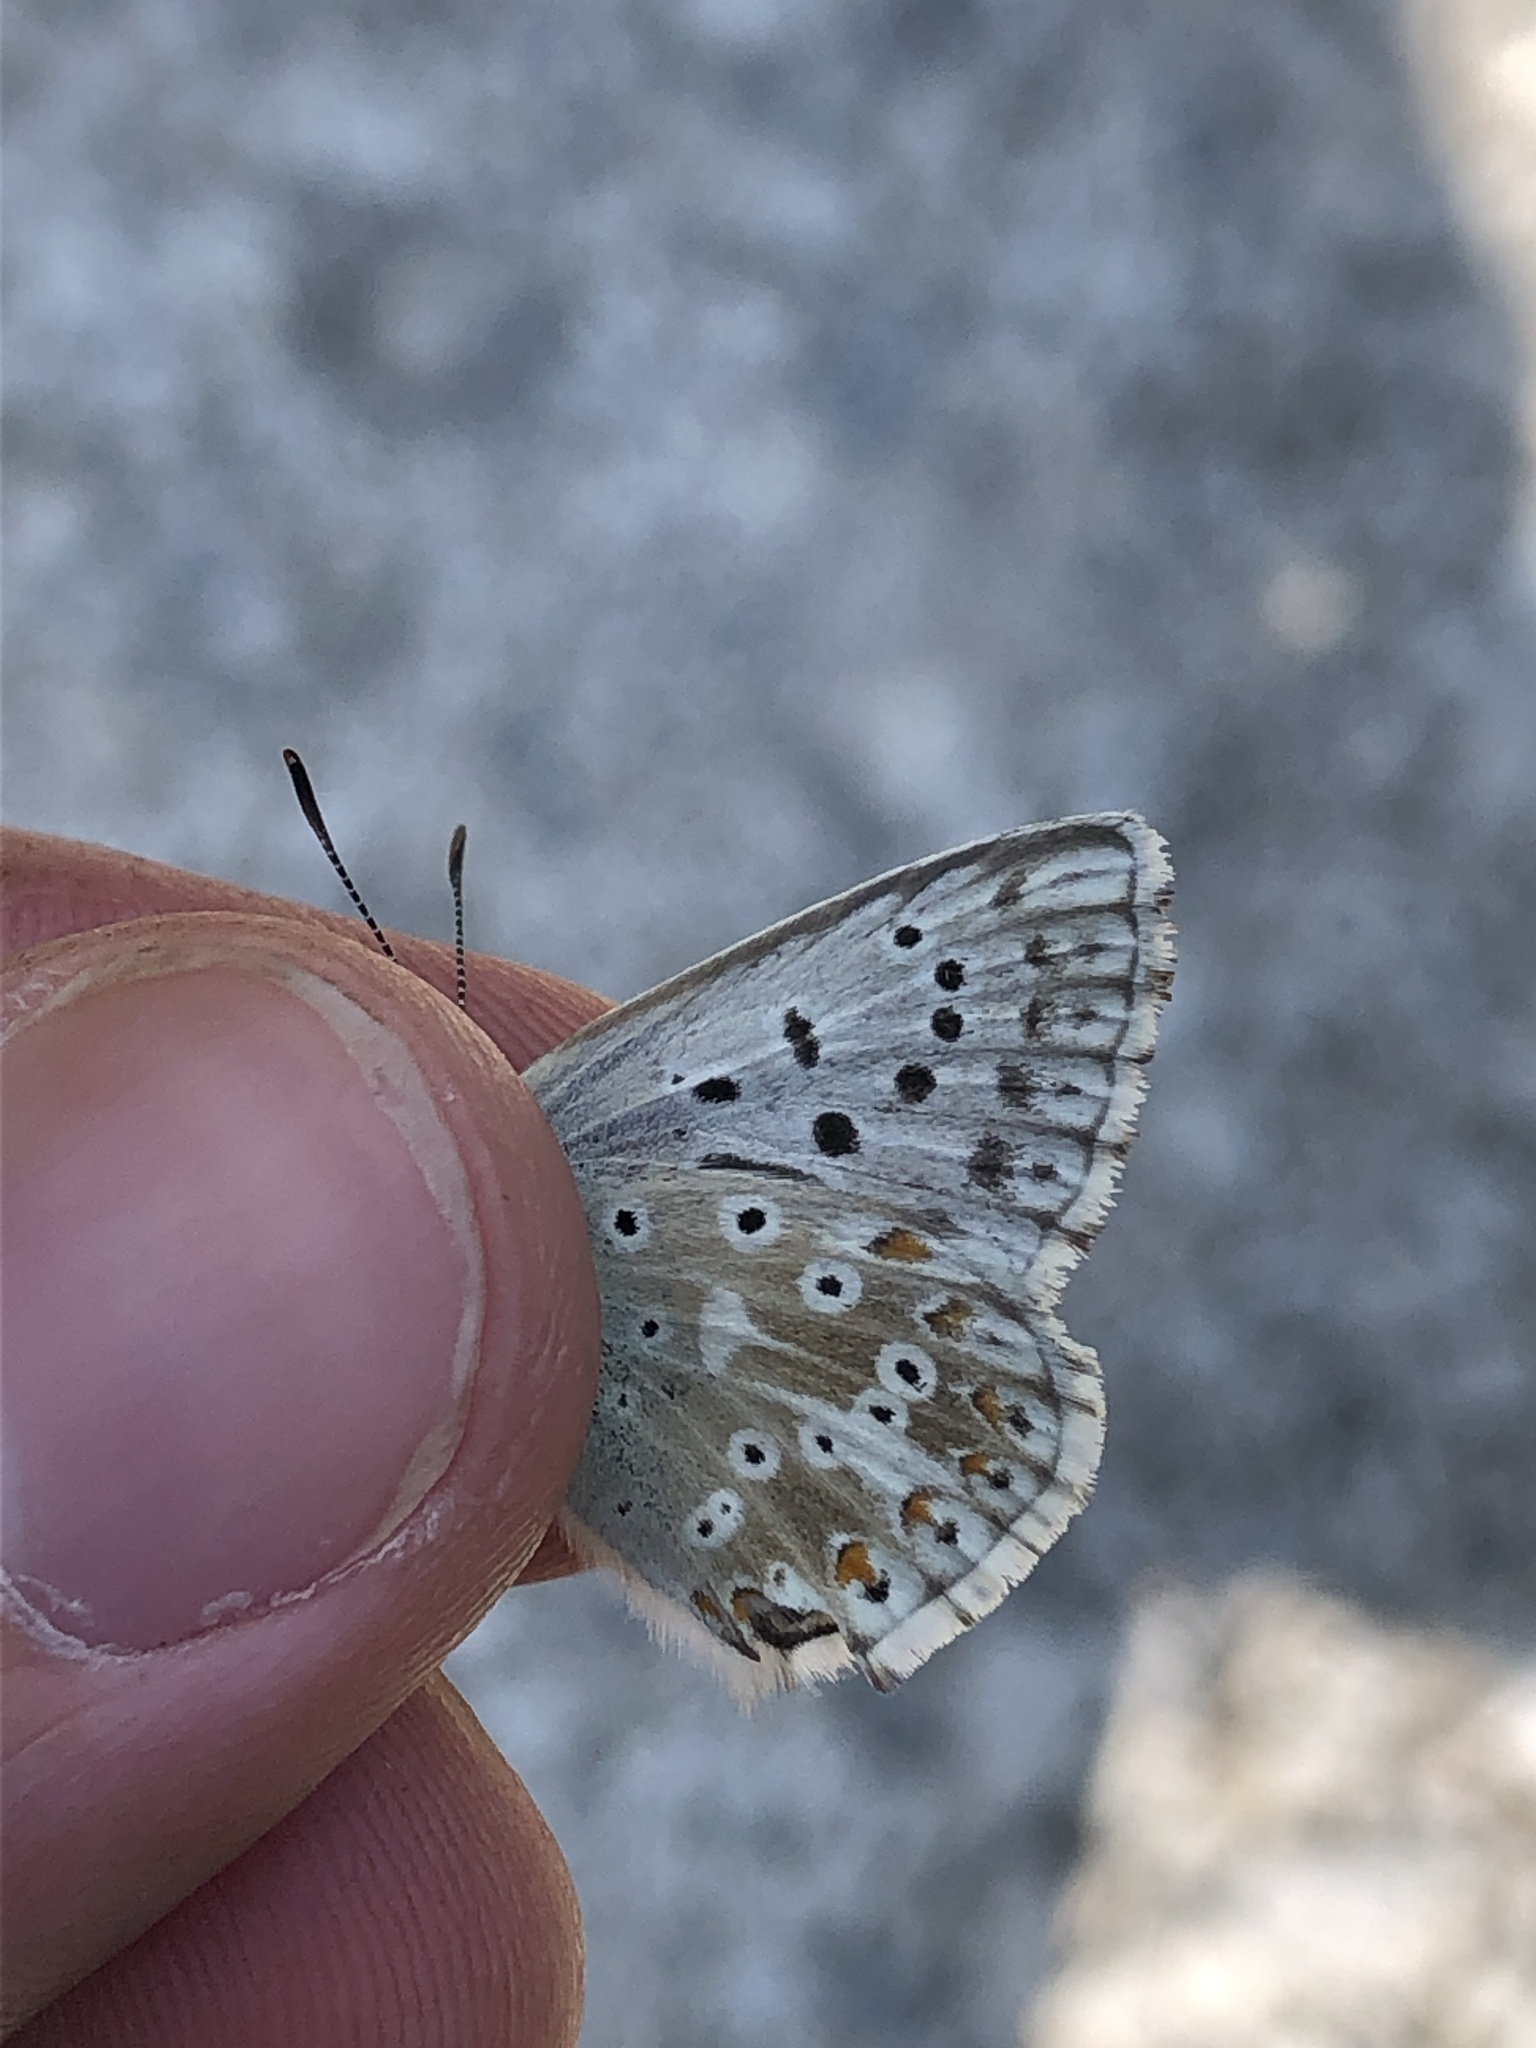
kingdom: Animalia
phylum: Arthropoda
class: Insecta
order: Lepidoptera
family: Lycaenidae
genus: Lysandra
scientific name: Lysandra coridon
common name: Chalkhill blue
